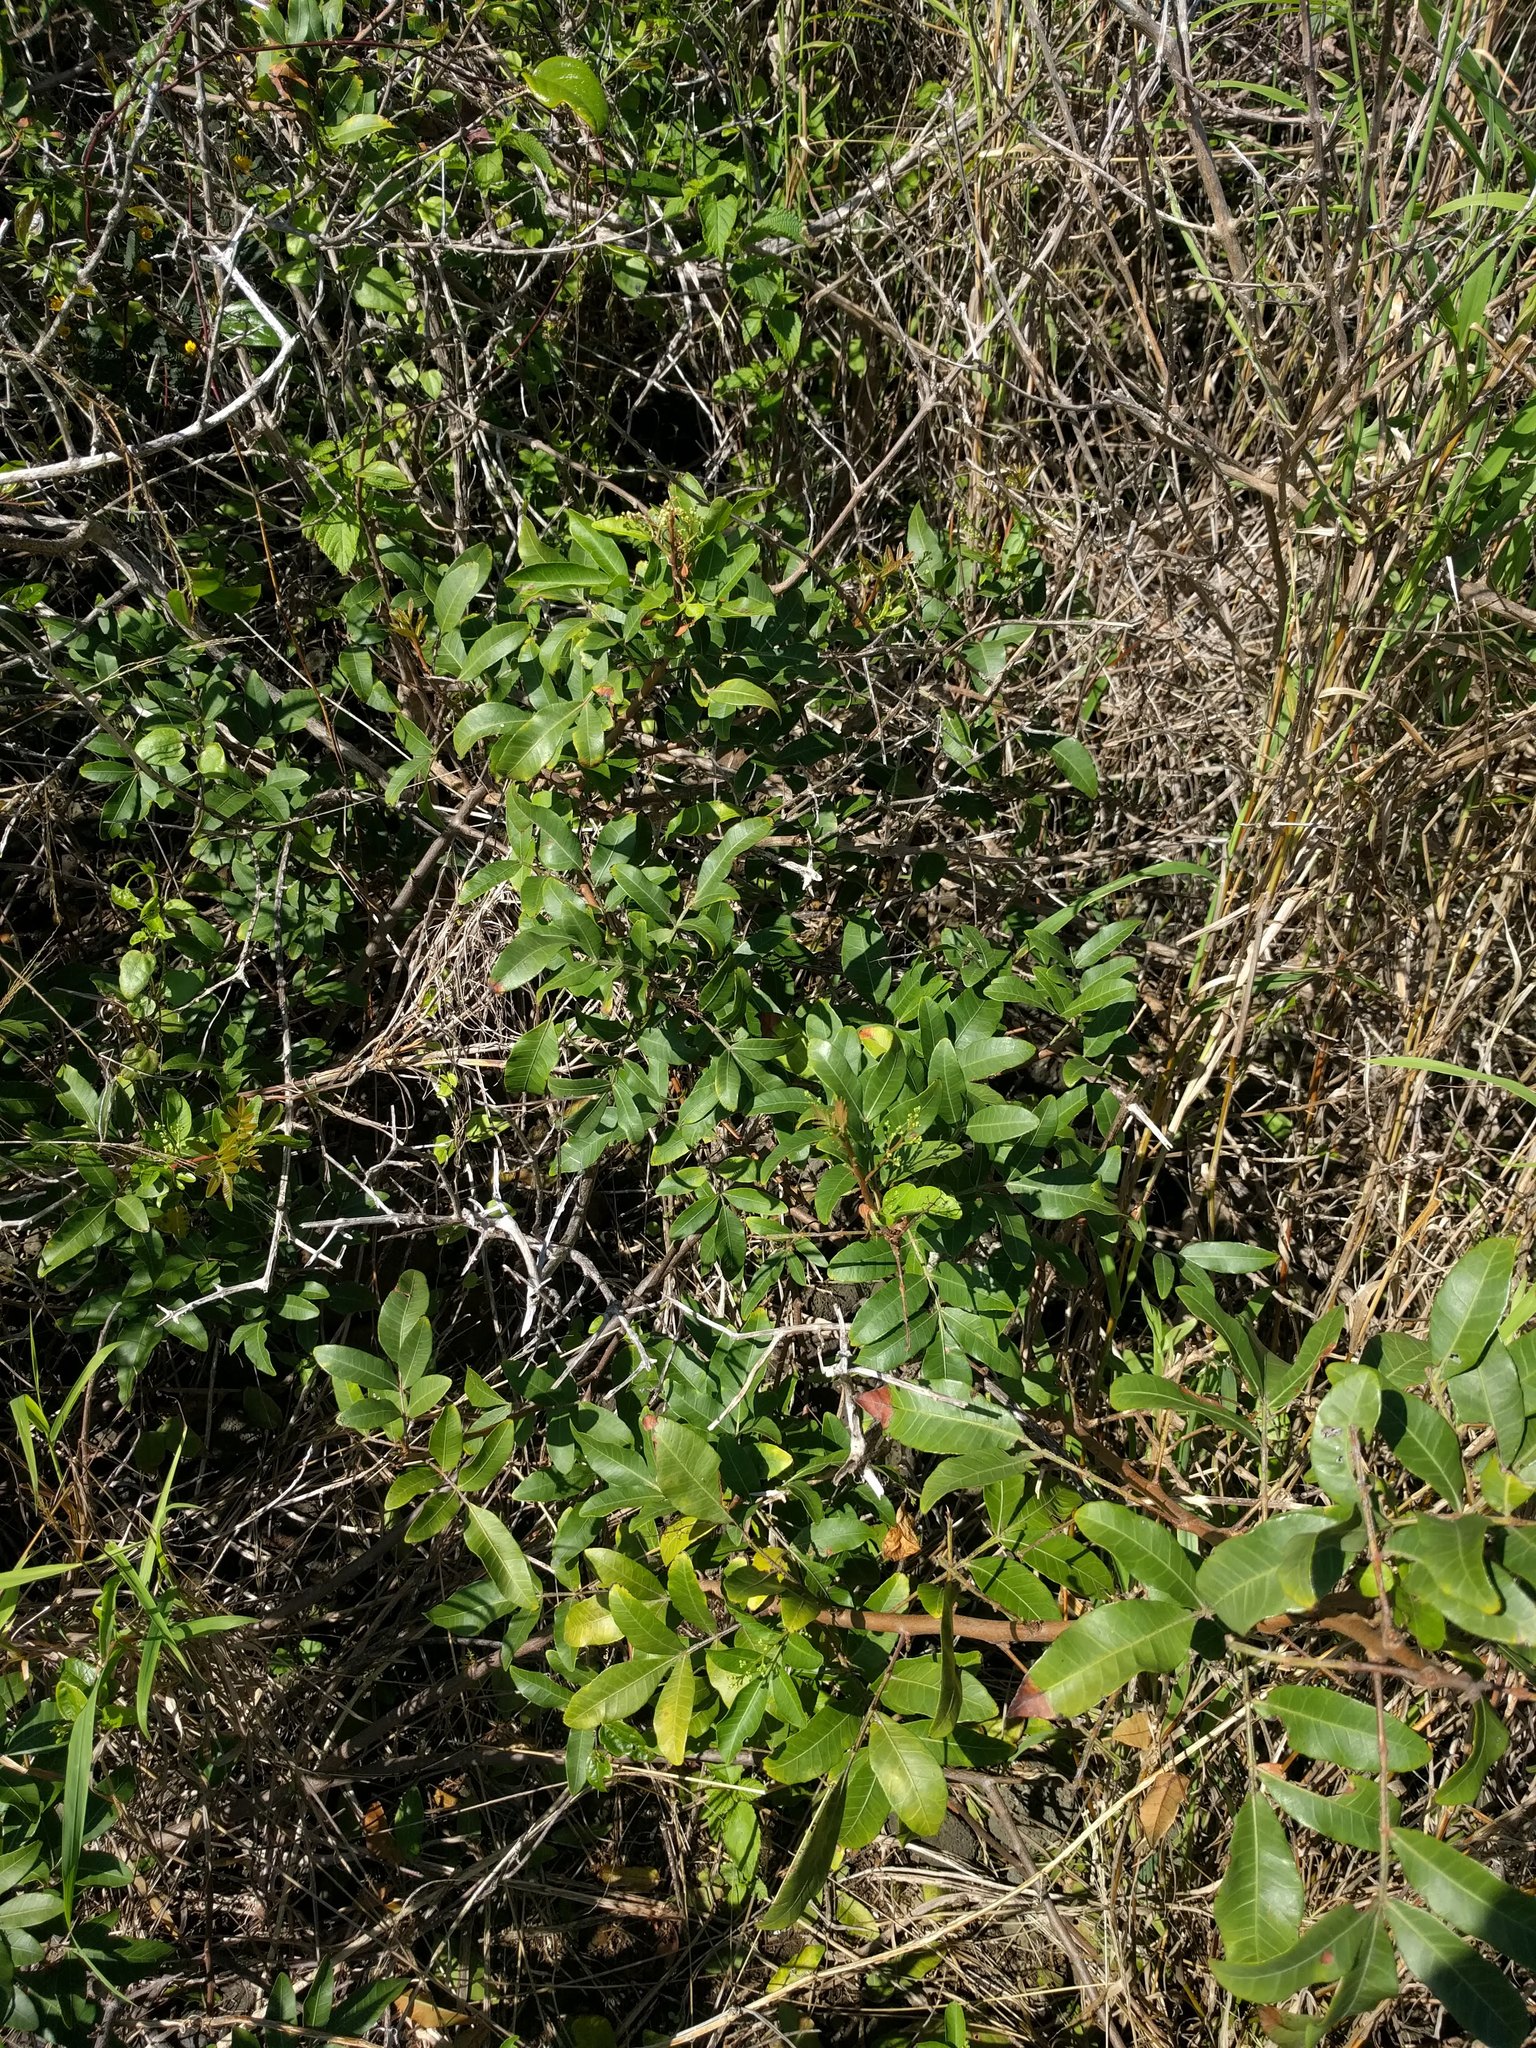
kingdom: Plantae
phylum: Tracheophyta
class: Magnoliopsida
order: Sapindales
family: Anacardiaceae
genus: Schinus
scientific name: Schinus terebinthifolia
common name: Brazilian peppertree
